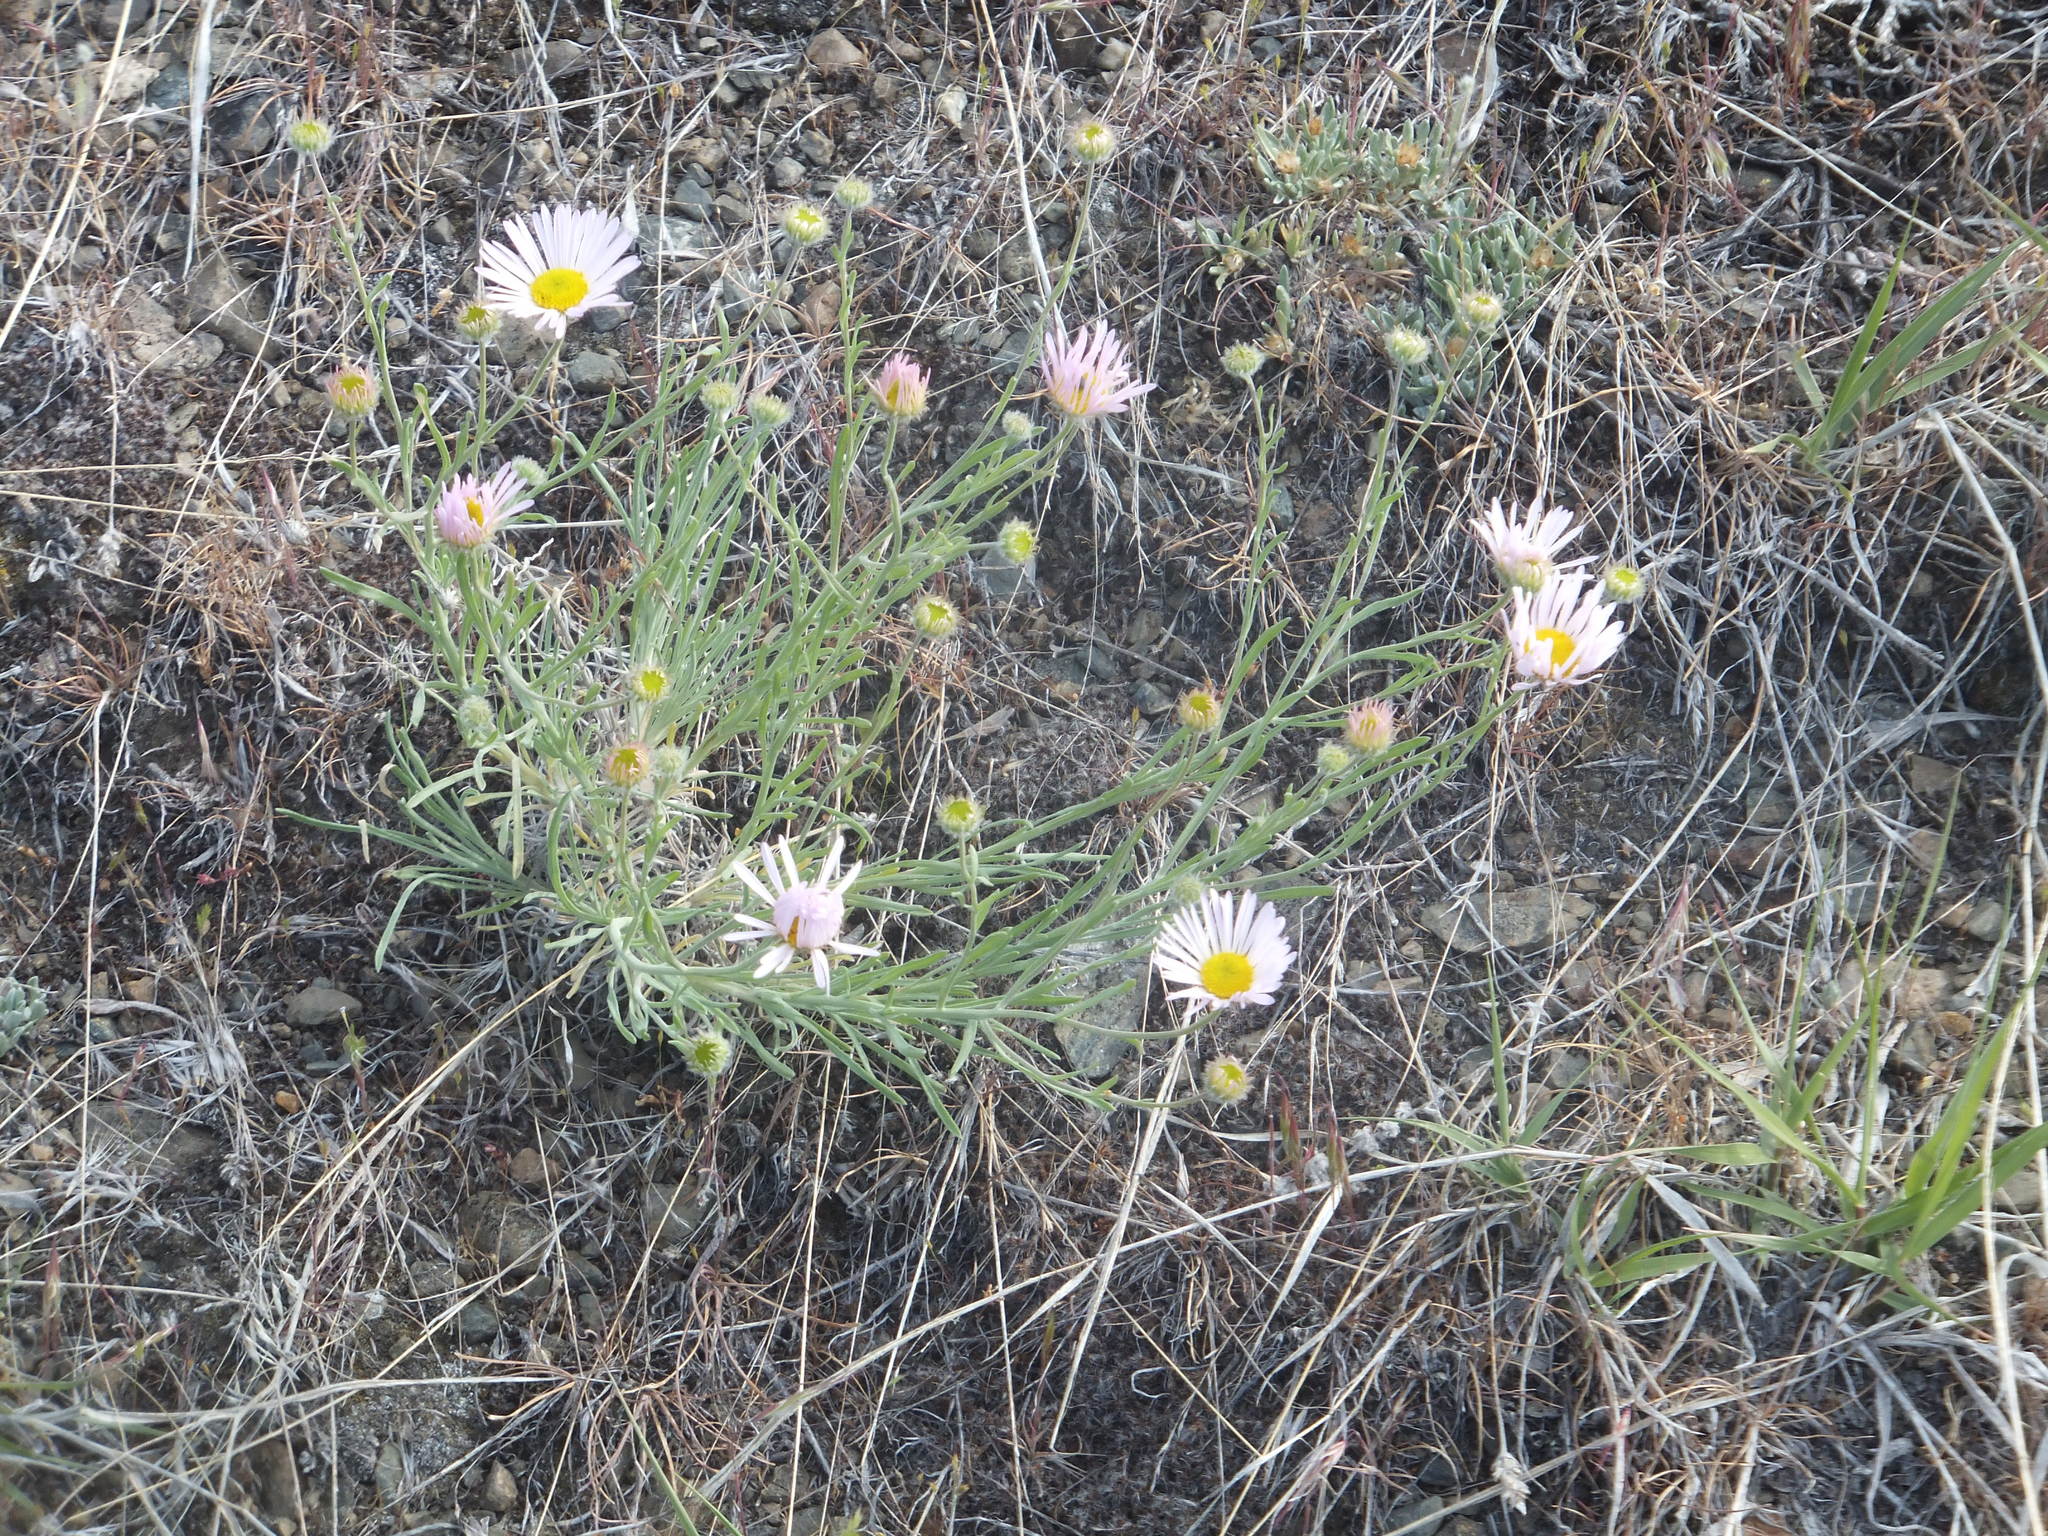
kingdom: Plantae
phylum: Tracheophyta
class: Magnoliopsida
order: Asterales
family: Asteraceae
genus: Erigeron
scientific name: Erigeron filifolius
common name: Threadleaf fleabane
